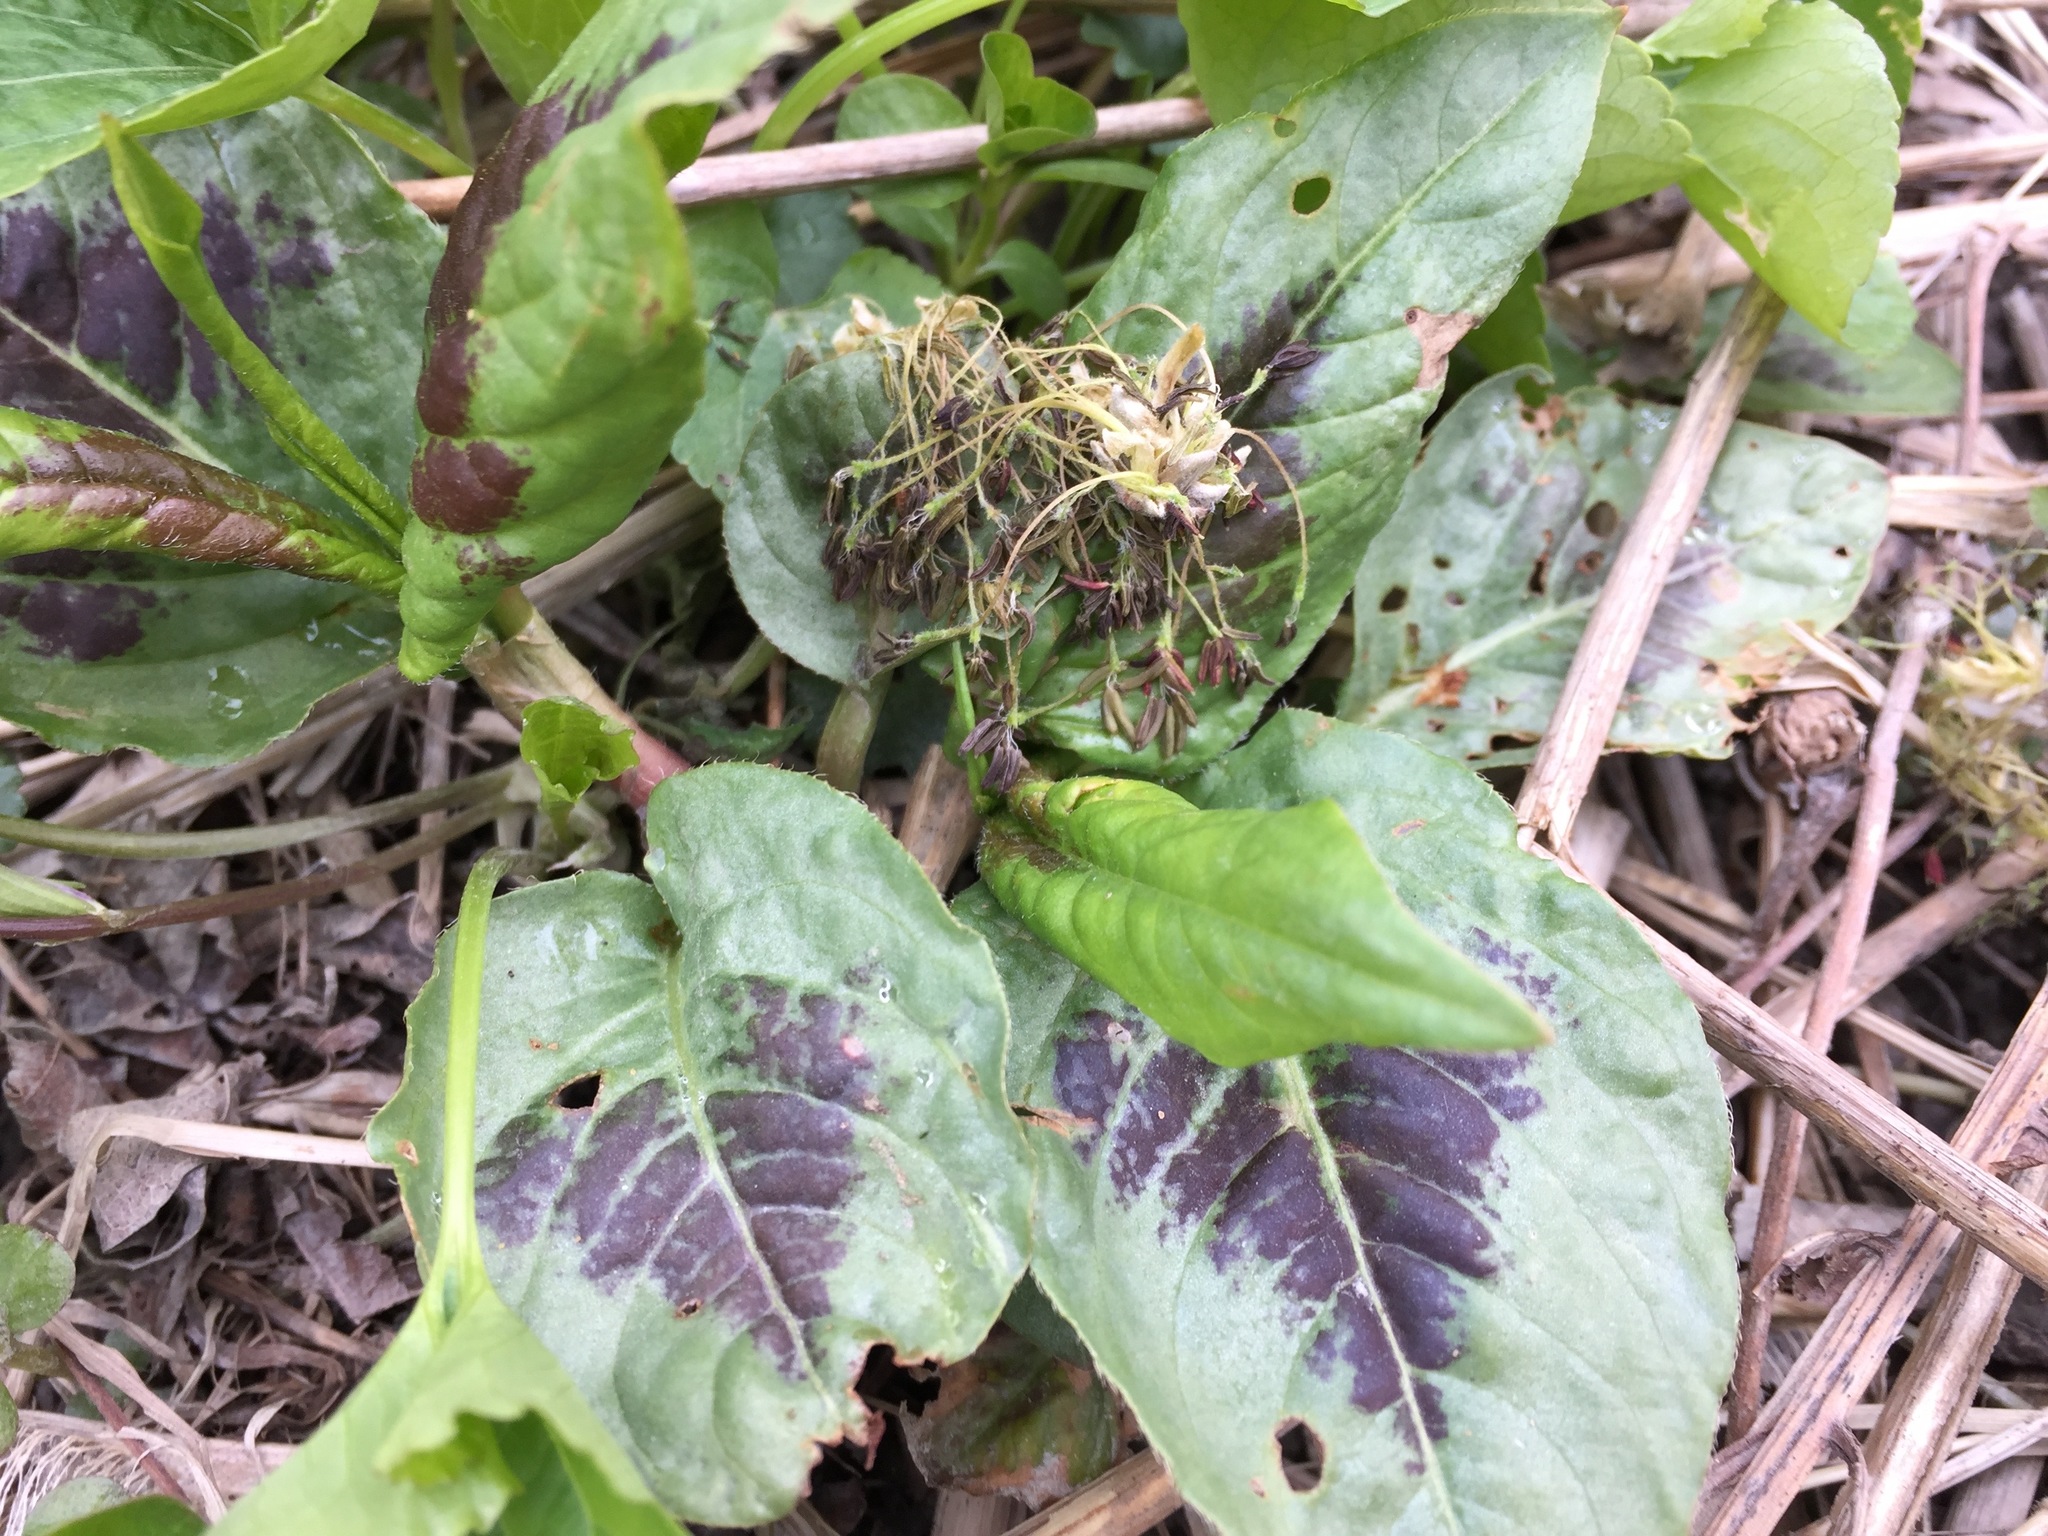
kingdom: Plantae
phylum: Tracheophyta
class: Magnoliopsida
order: Caryophyllales
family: Polygonaceae
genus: Persicaria
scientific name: Persicaria virginiana
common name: Jumpseed
